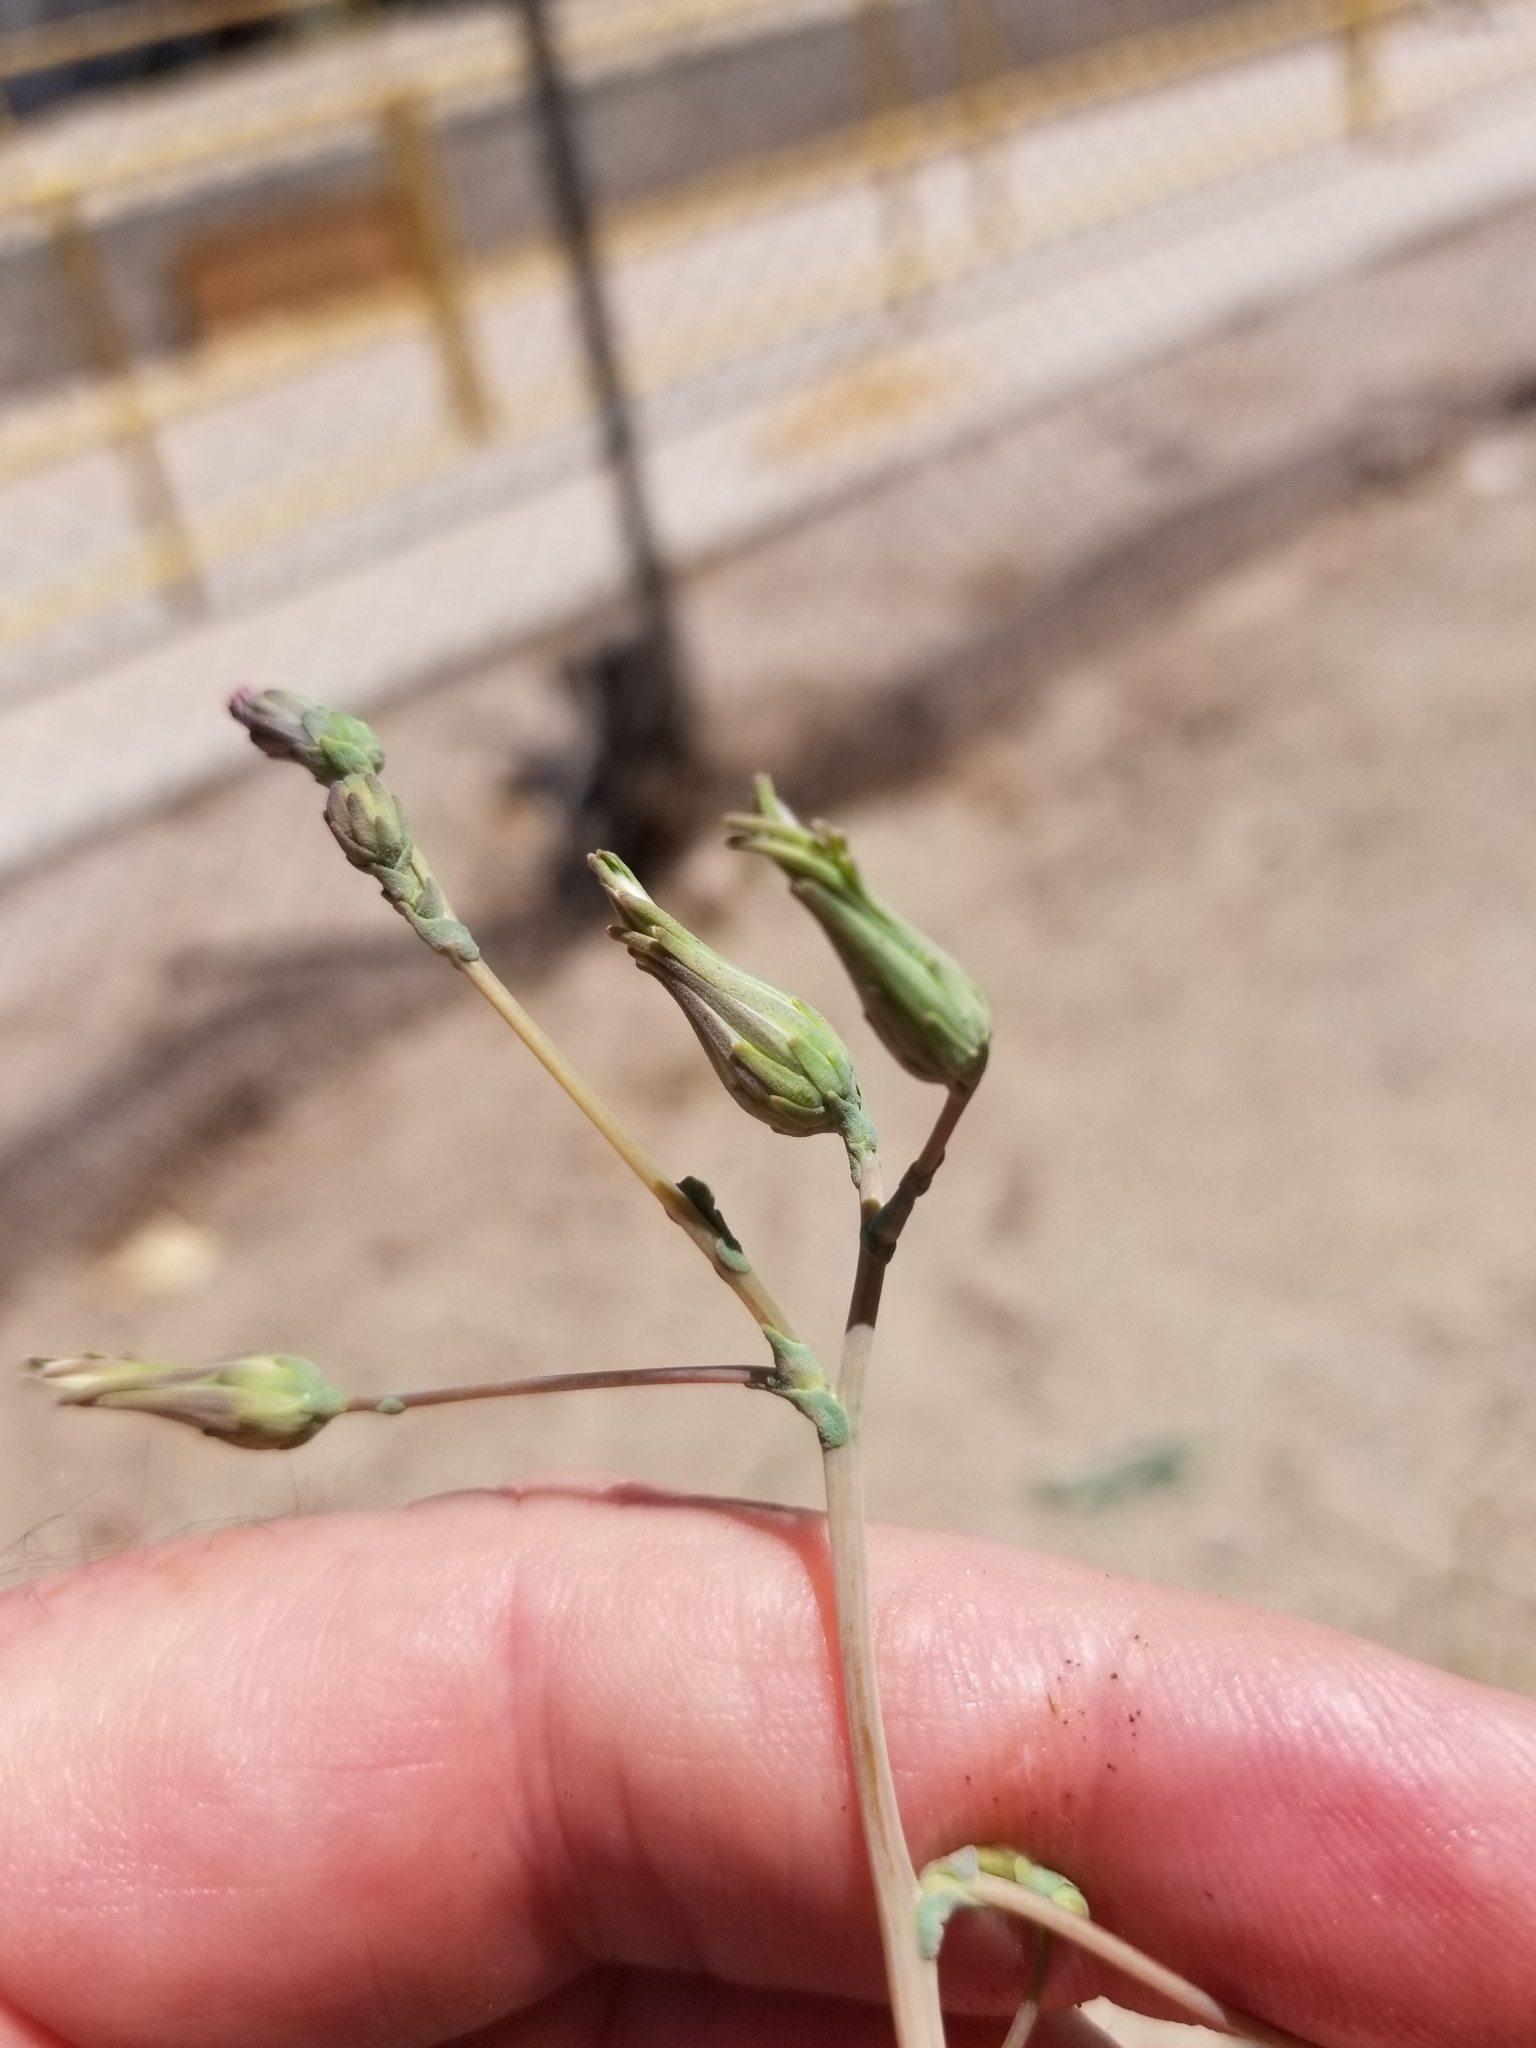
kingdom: Plantae
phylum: Tracheophyta
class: Magnoliopsida
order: Asterales
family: Asteraceae
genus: Lactuca
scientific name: Lactuca serriola
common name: Prickly lettuce
